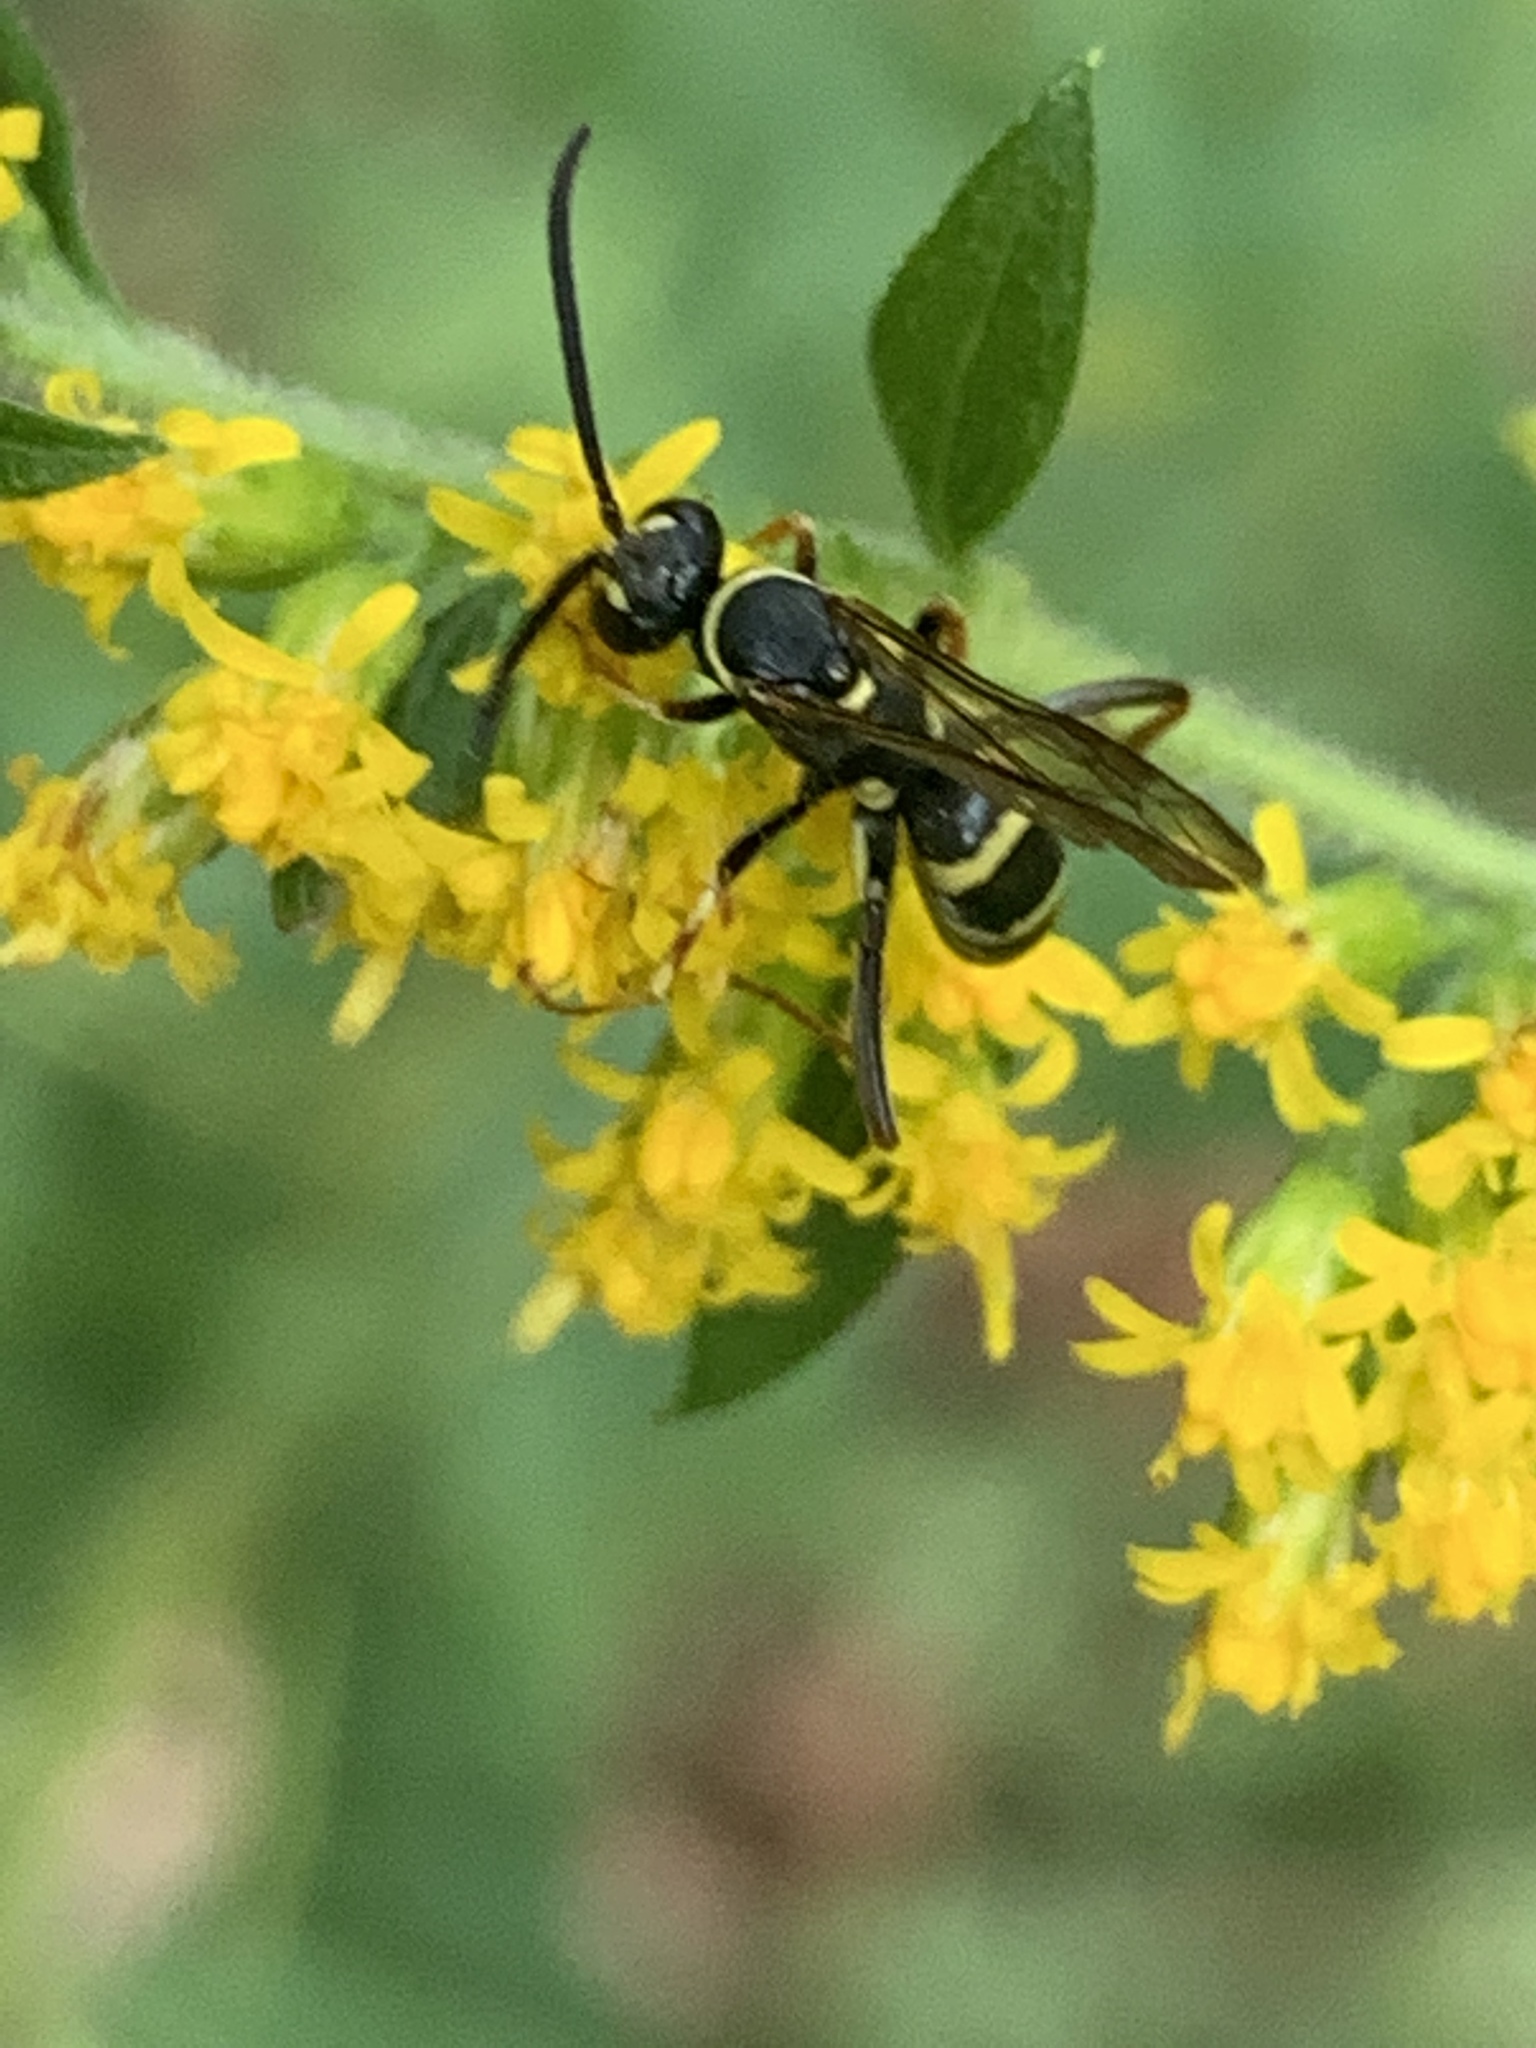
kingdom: Animalia
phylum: Arthropoda
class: Insecta
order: Hymenoptera
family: Pompilidae
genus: Ceropales
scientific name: Ceropales maculata
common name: Spider wasp
